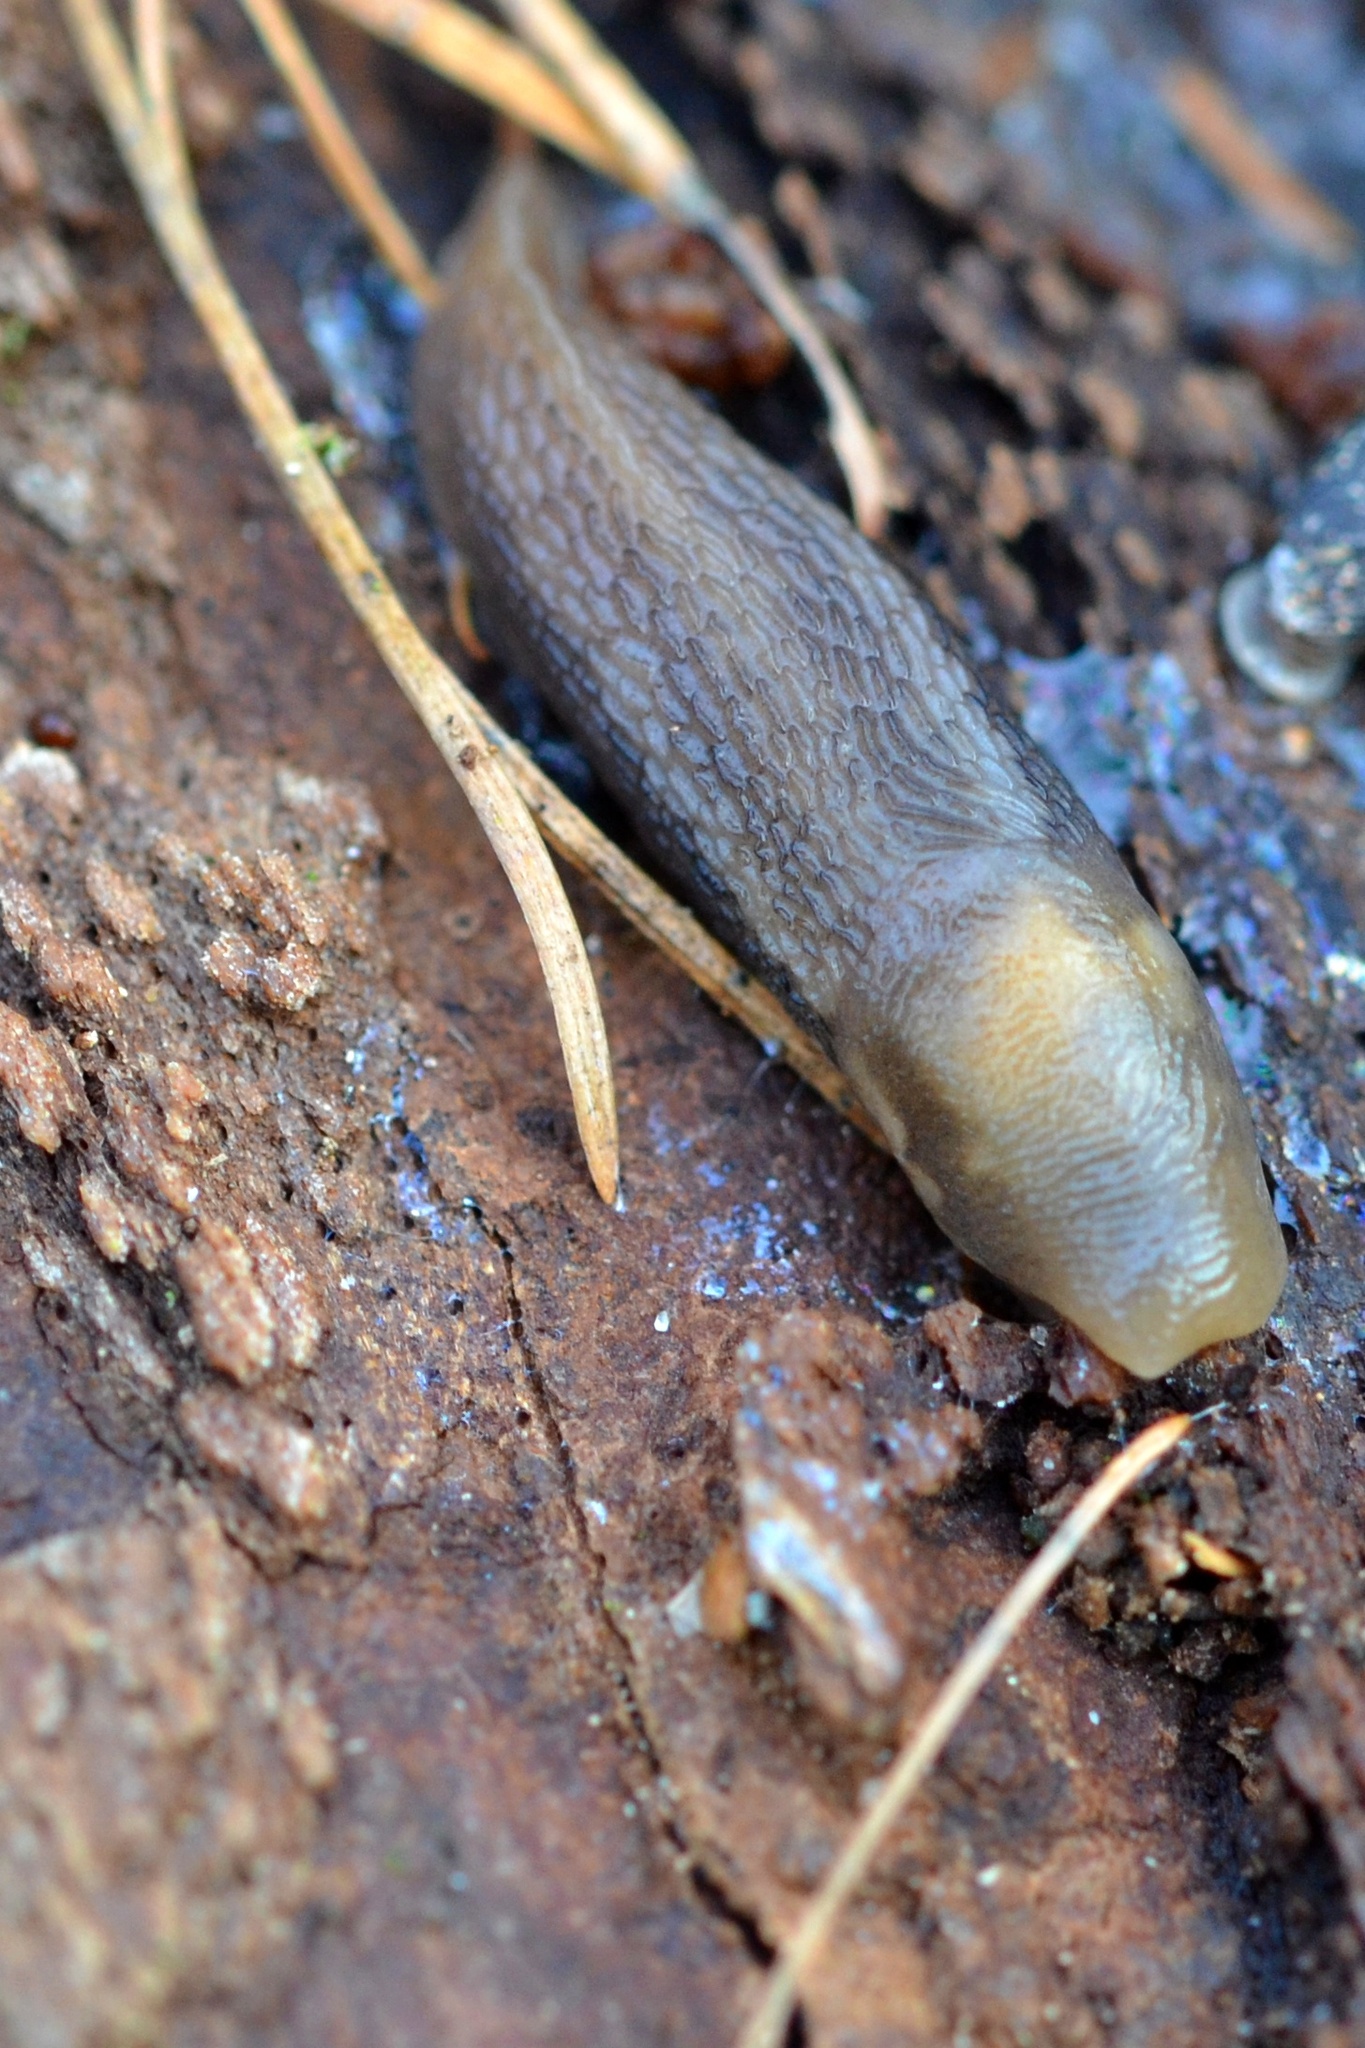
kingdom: Animalia
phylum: Mollusca
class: Gastropoda
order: Stylommatophora
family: Limacidae
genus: Limax
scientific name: Limax cinereoniger
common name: Ash-black slug
